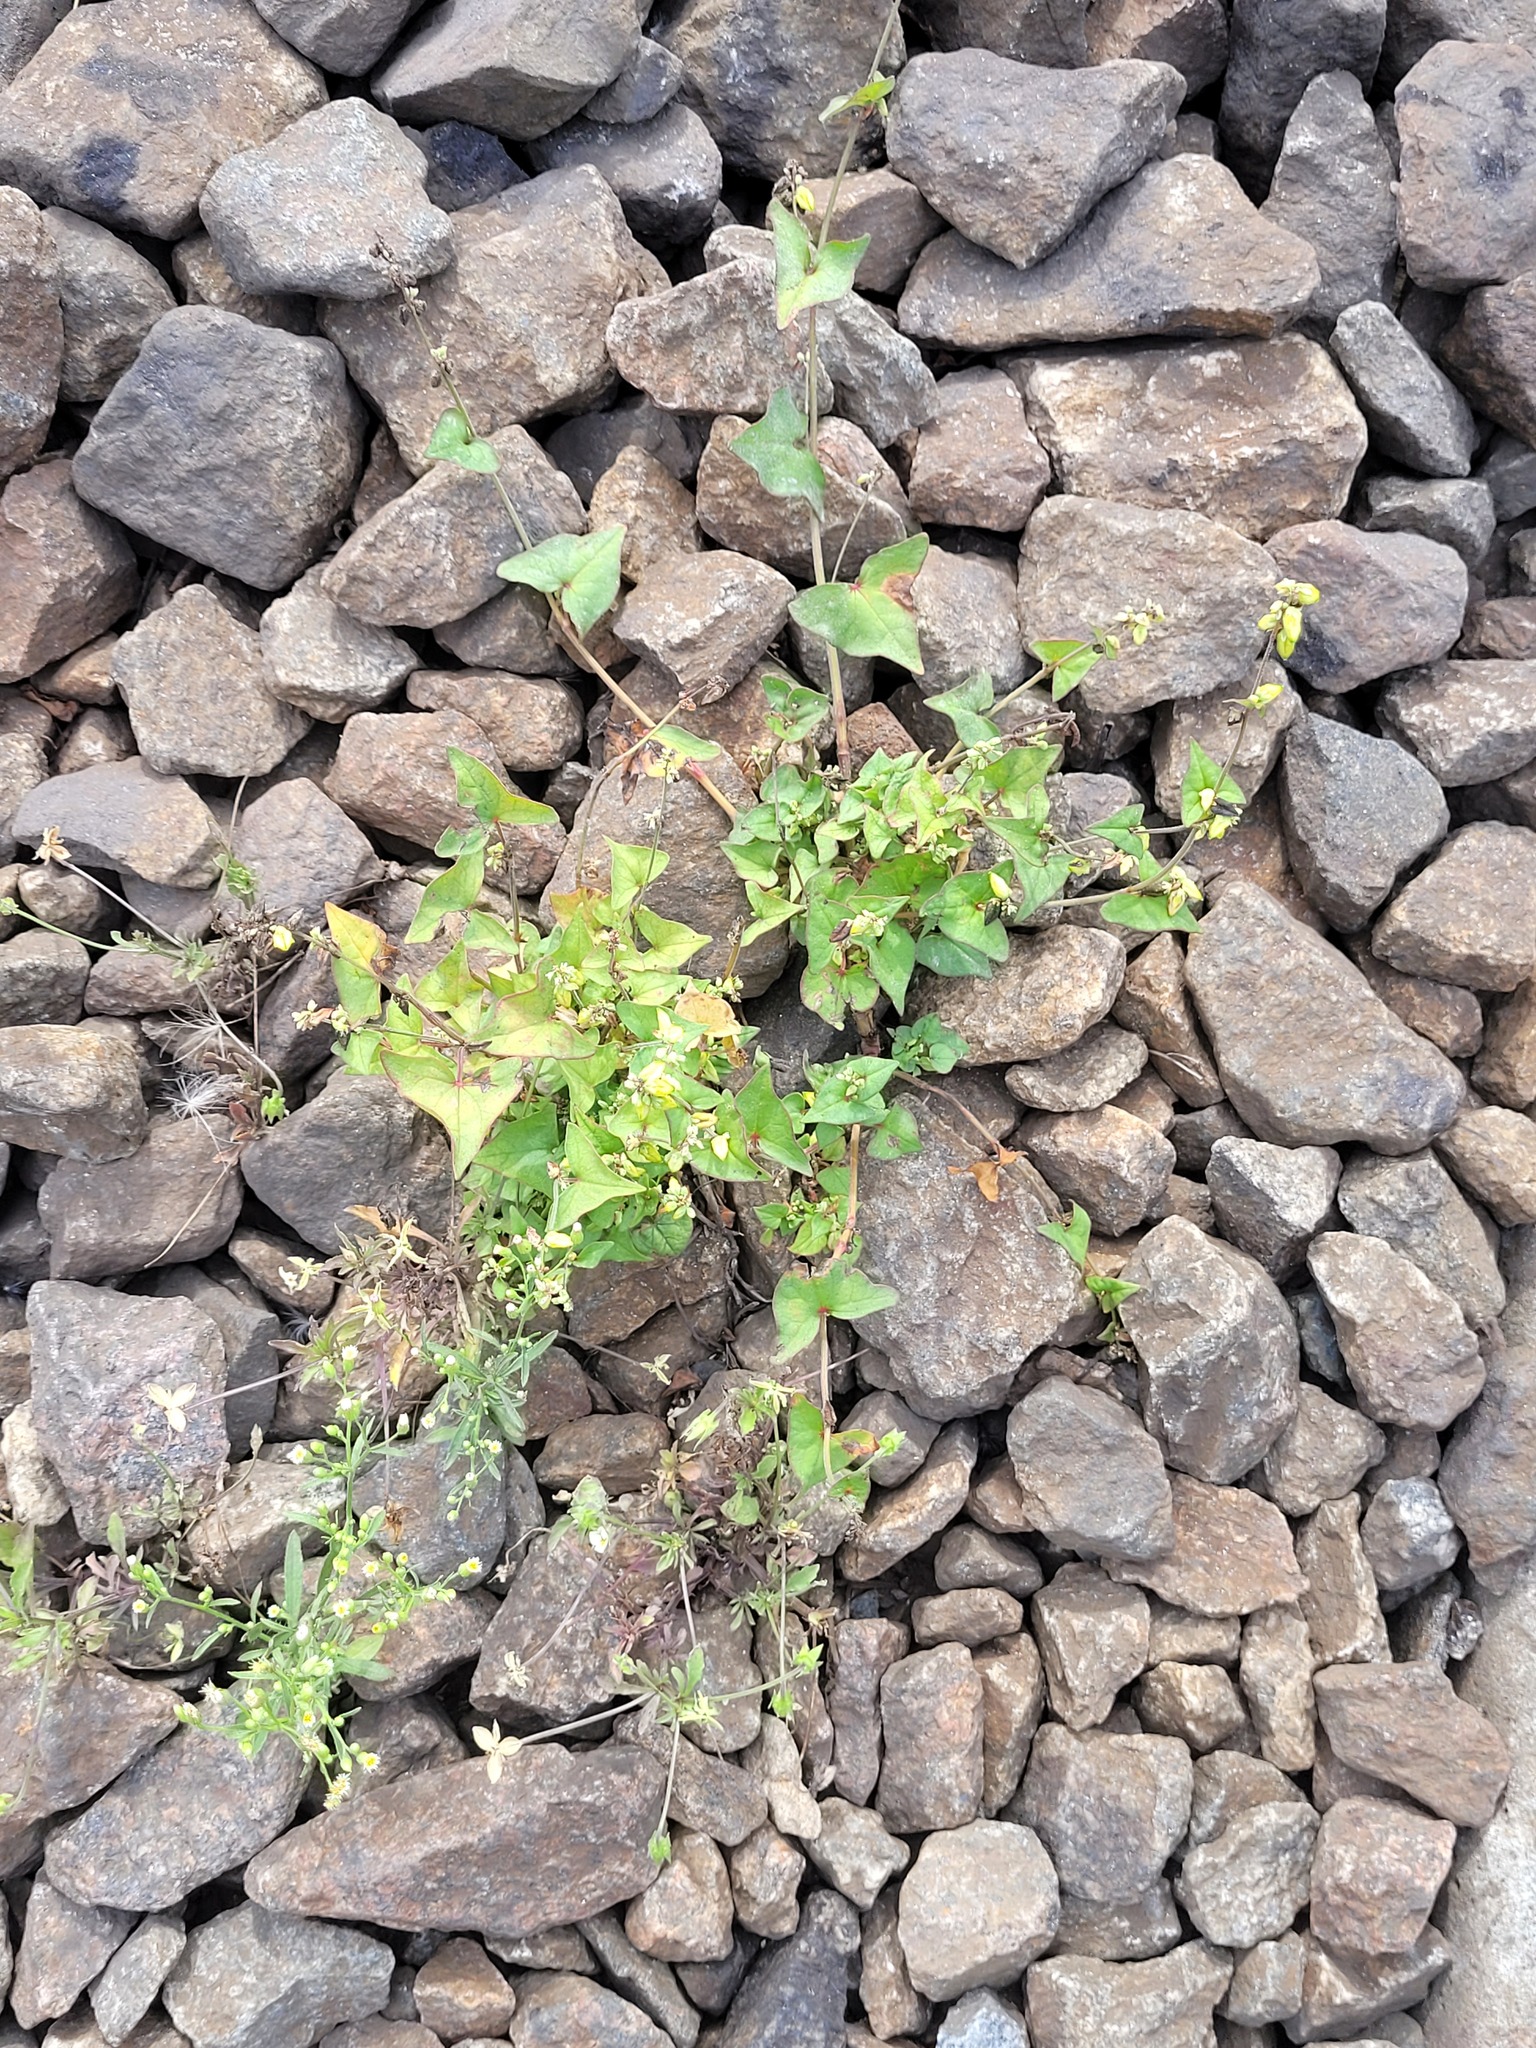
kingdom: Plantae
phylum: Tracheophyta
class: Magnoliopsida
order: Caryophyllales
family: Polygonaceae
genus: Fagopyrum
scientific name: Fagopyrum tataricum
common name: Green buckwheat
